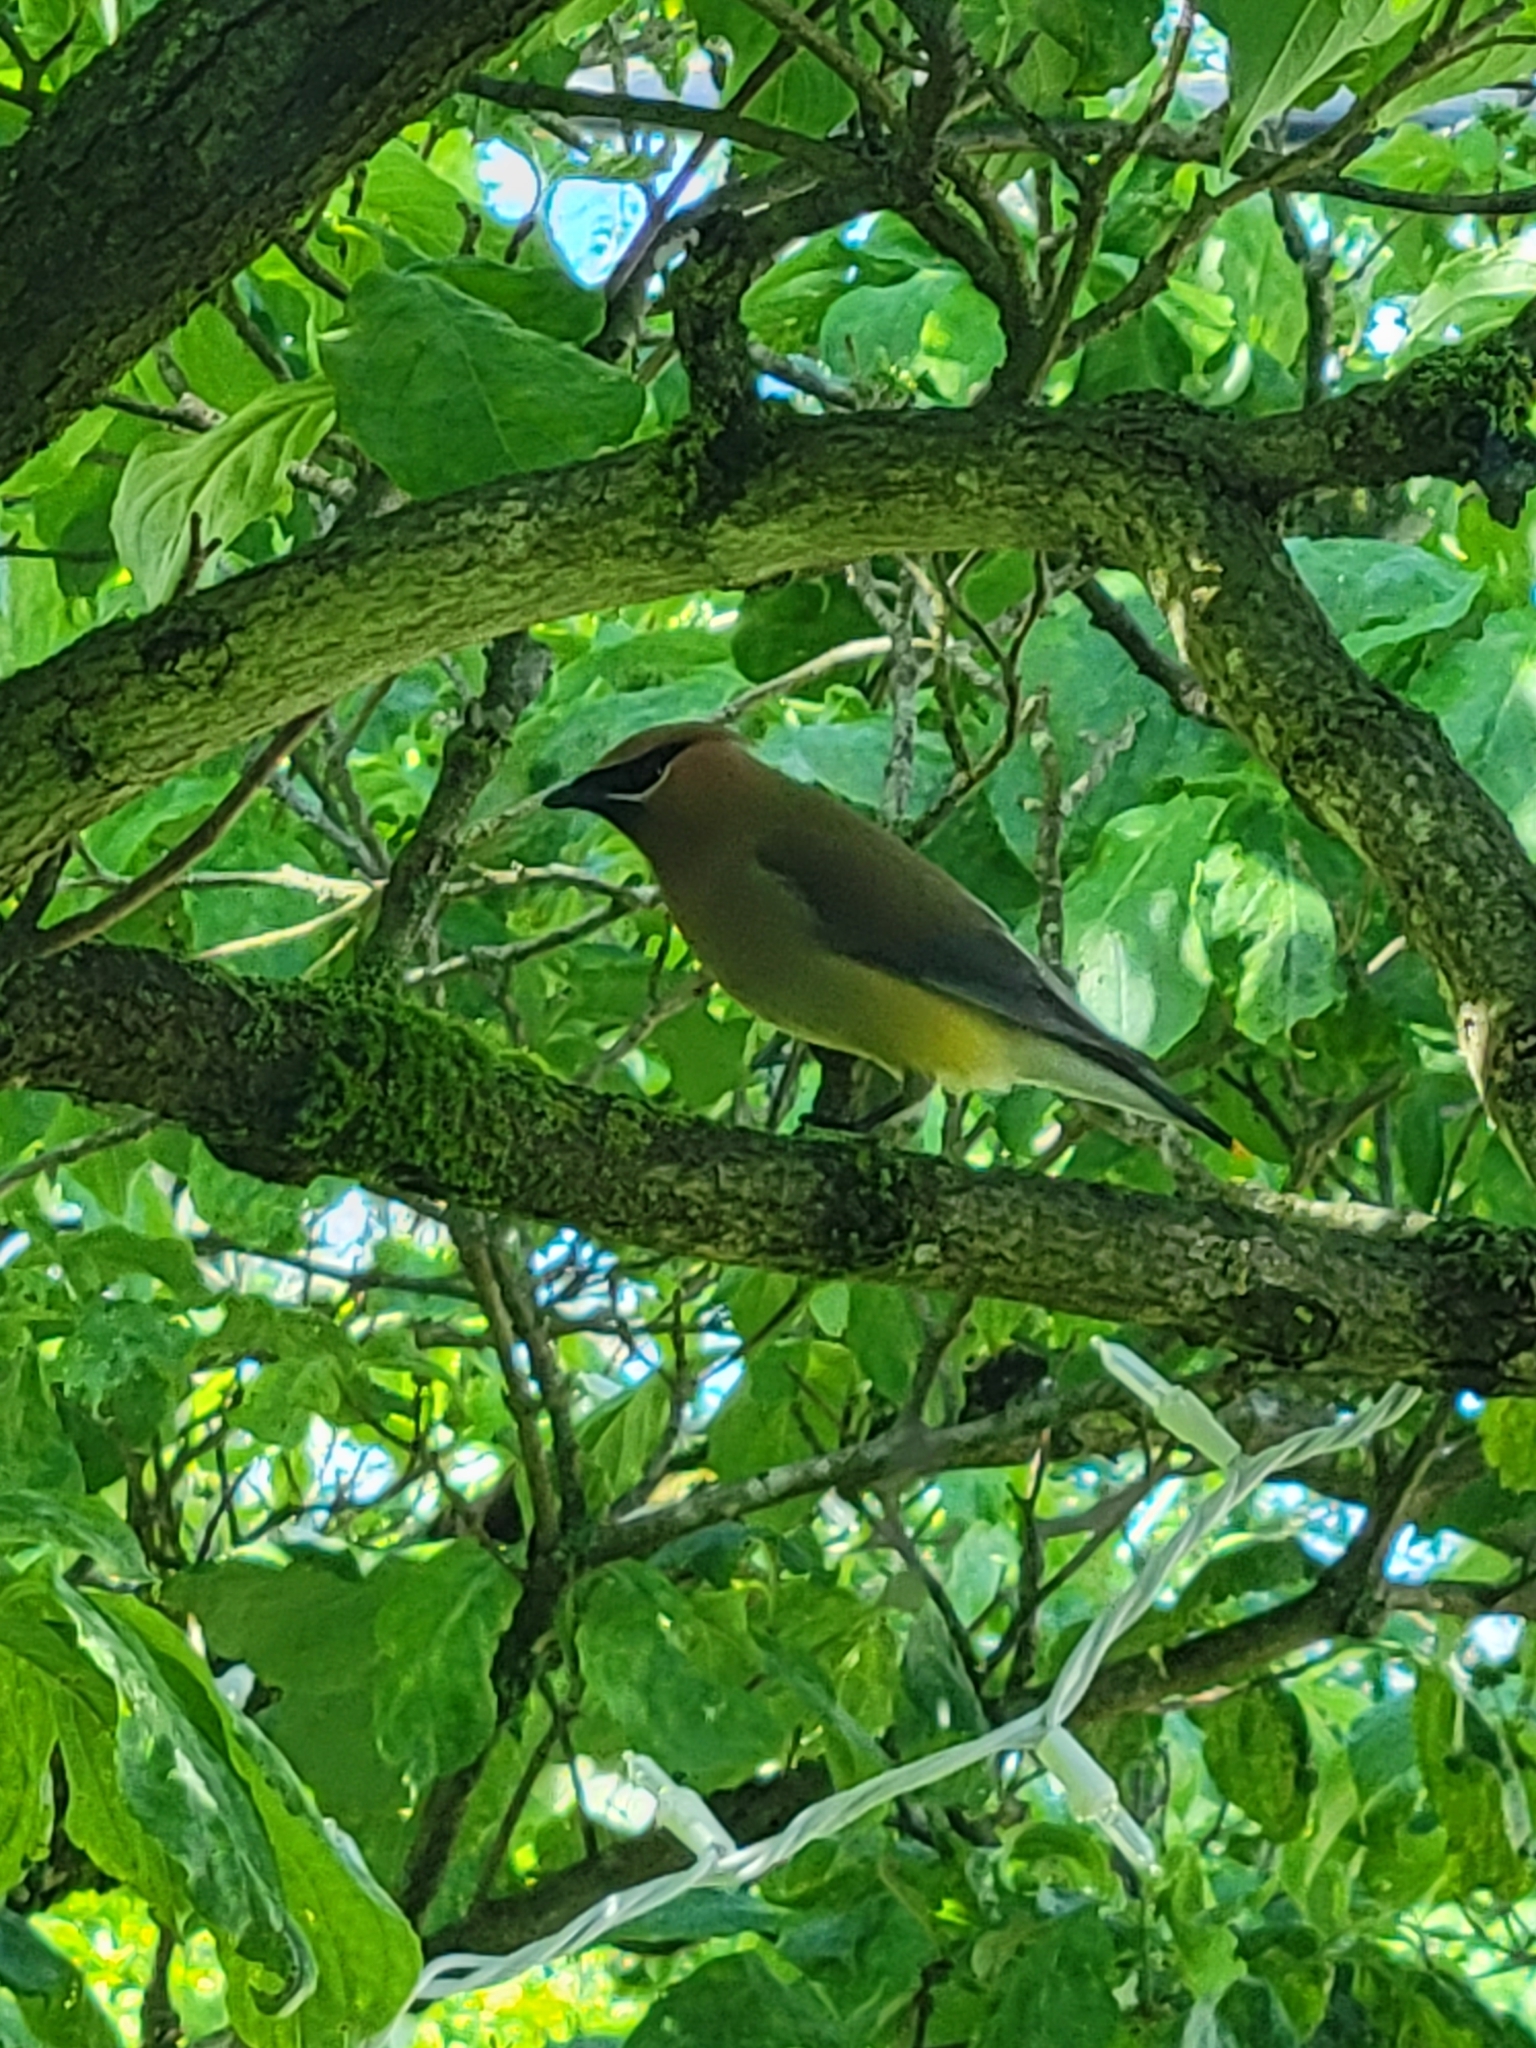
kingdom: Animalia
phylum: Chordata
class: Aves
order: Passeriformes
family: Bombycillidae
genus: Bombycilla
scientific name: Bombycilla cedrorum
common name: Cedar waxwing
